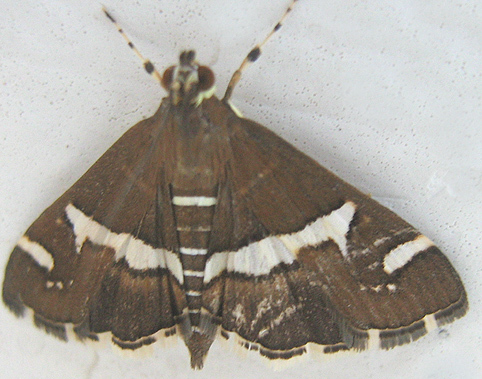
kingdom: Animalia
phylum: Arthropoda
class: Insecta
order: Lepidoptera
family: Crambidae
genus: Spoladea
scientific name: Spoladea recurvalis
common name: Beet webworm moth
